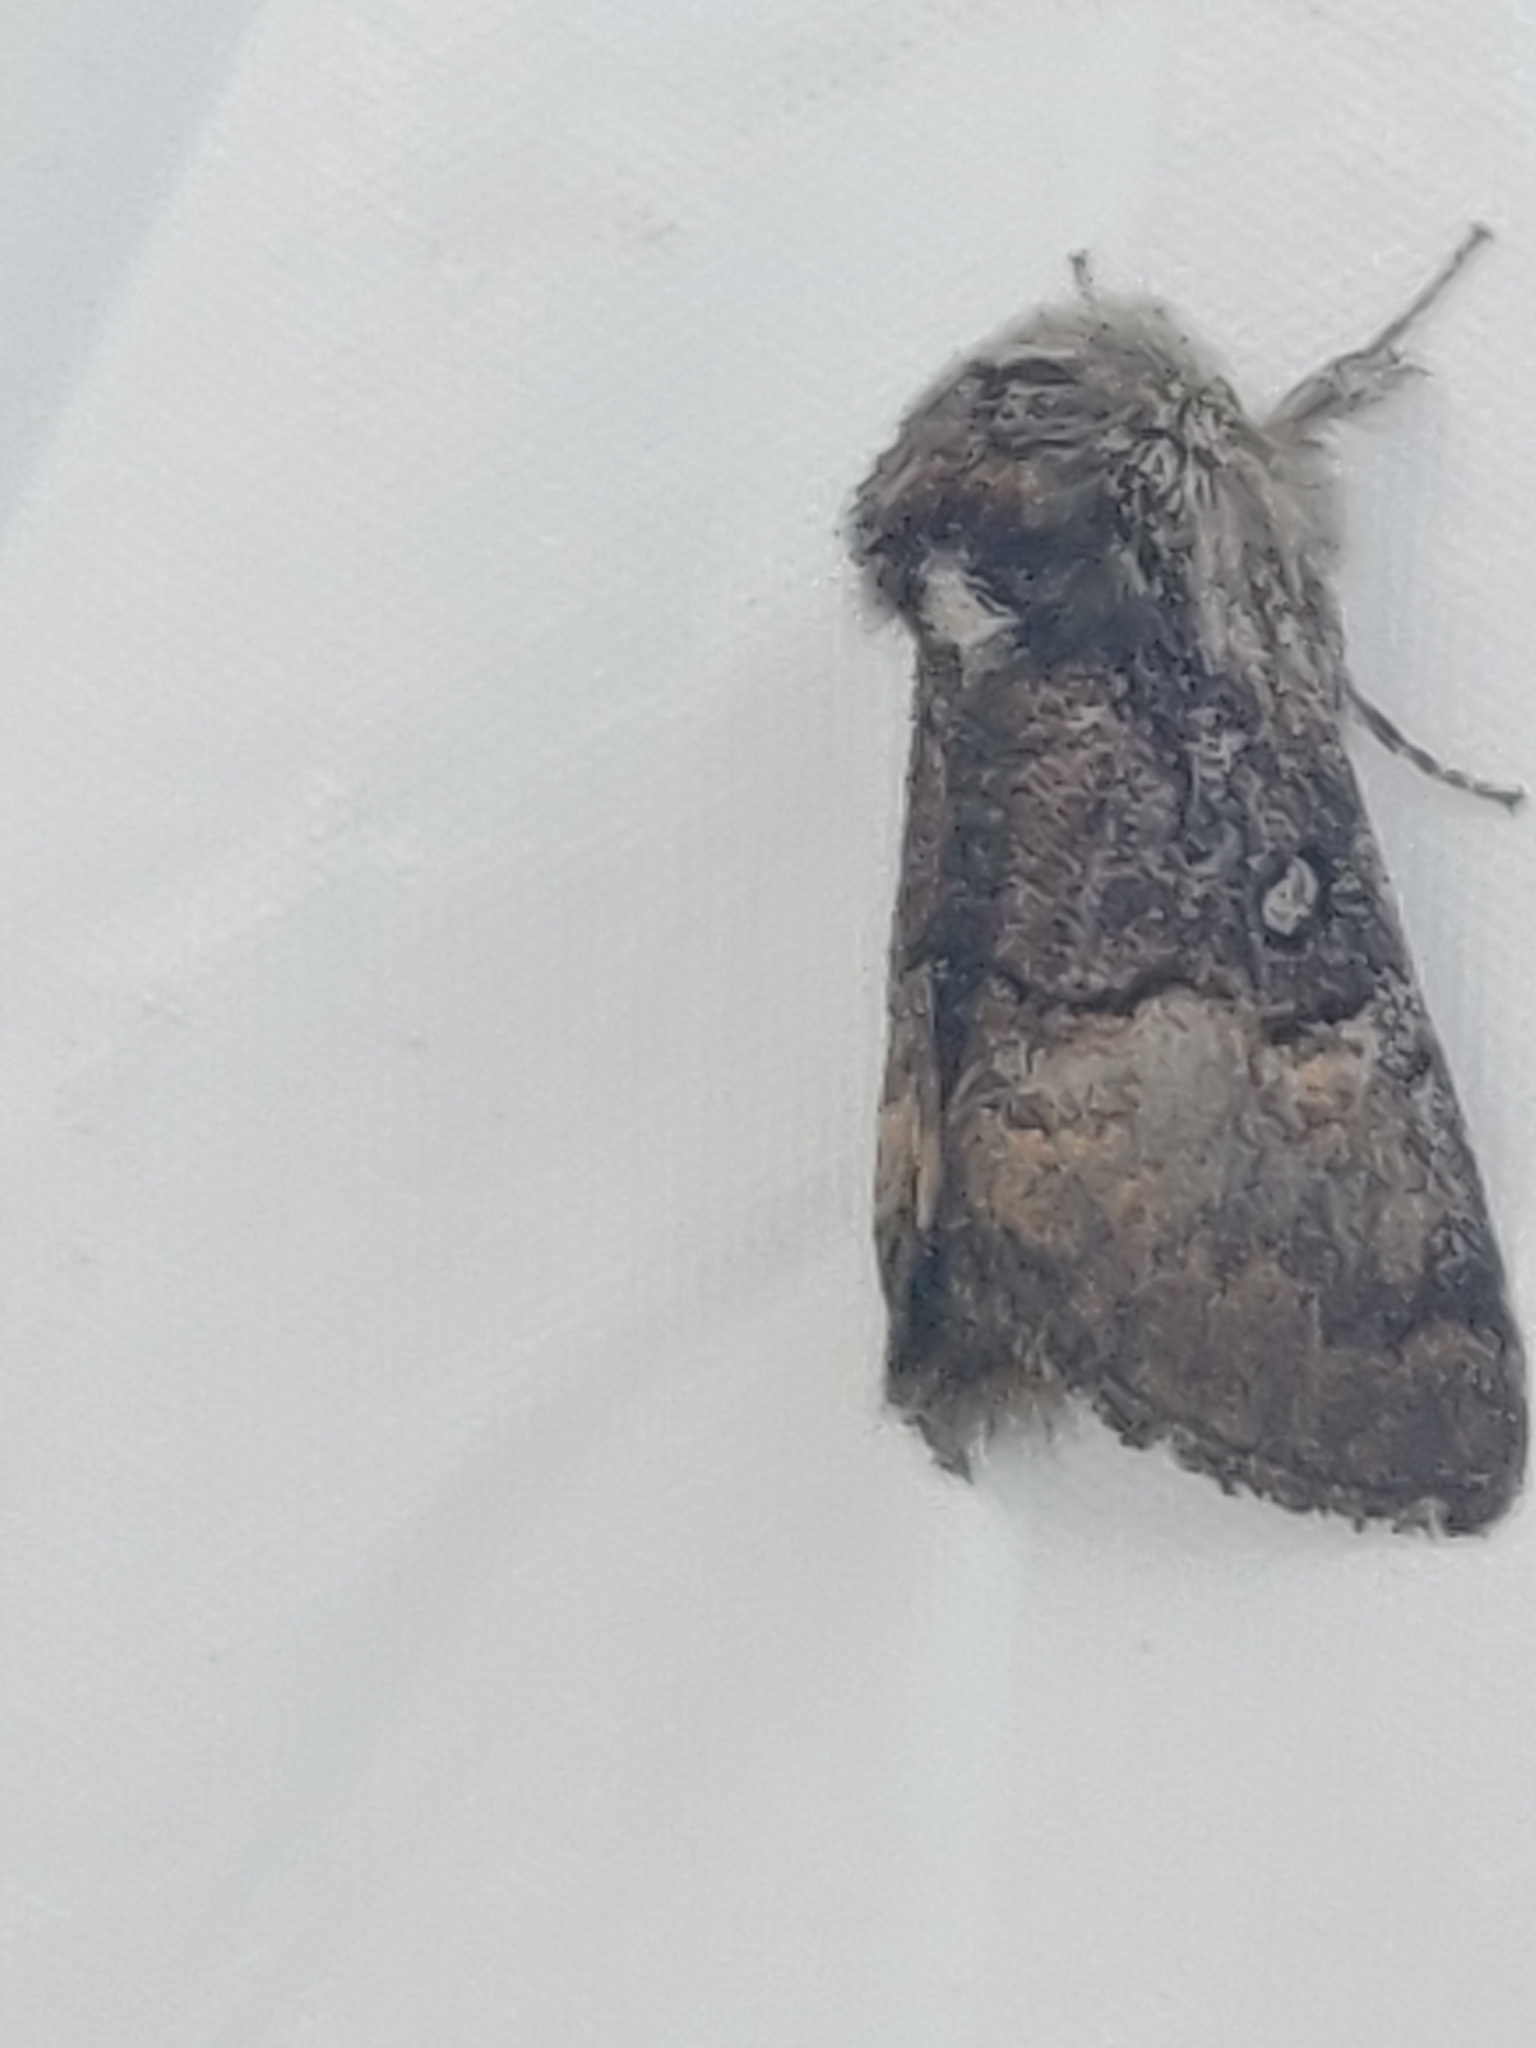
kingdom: Animalia
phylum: Arthropoda
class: Insecta
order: Lepidoptera
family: Noctuidae
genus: Colocasia
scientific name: Colocasia coryli
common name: Nut-tree tussock
